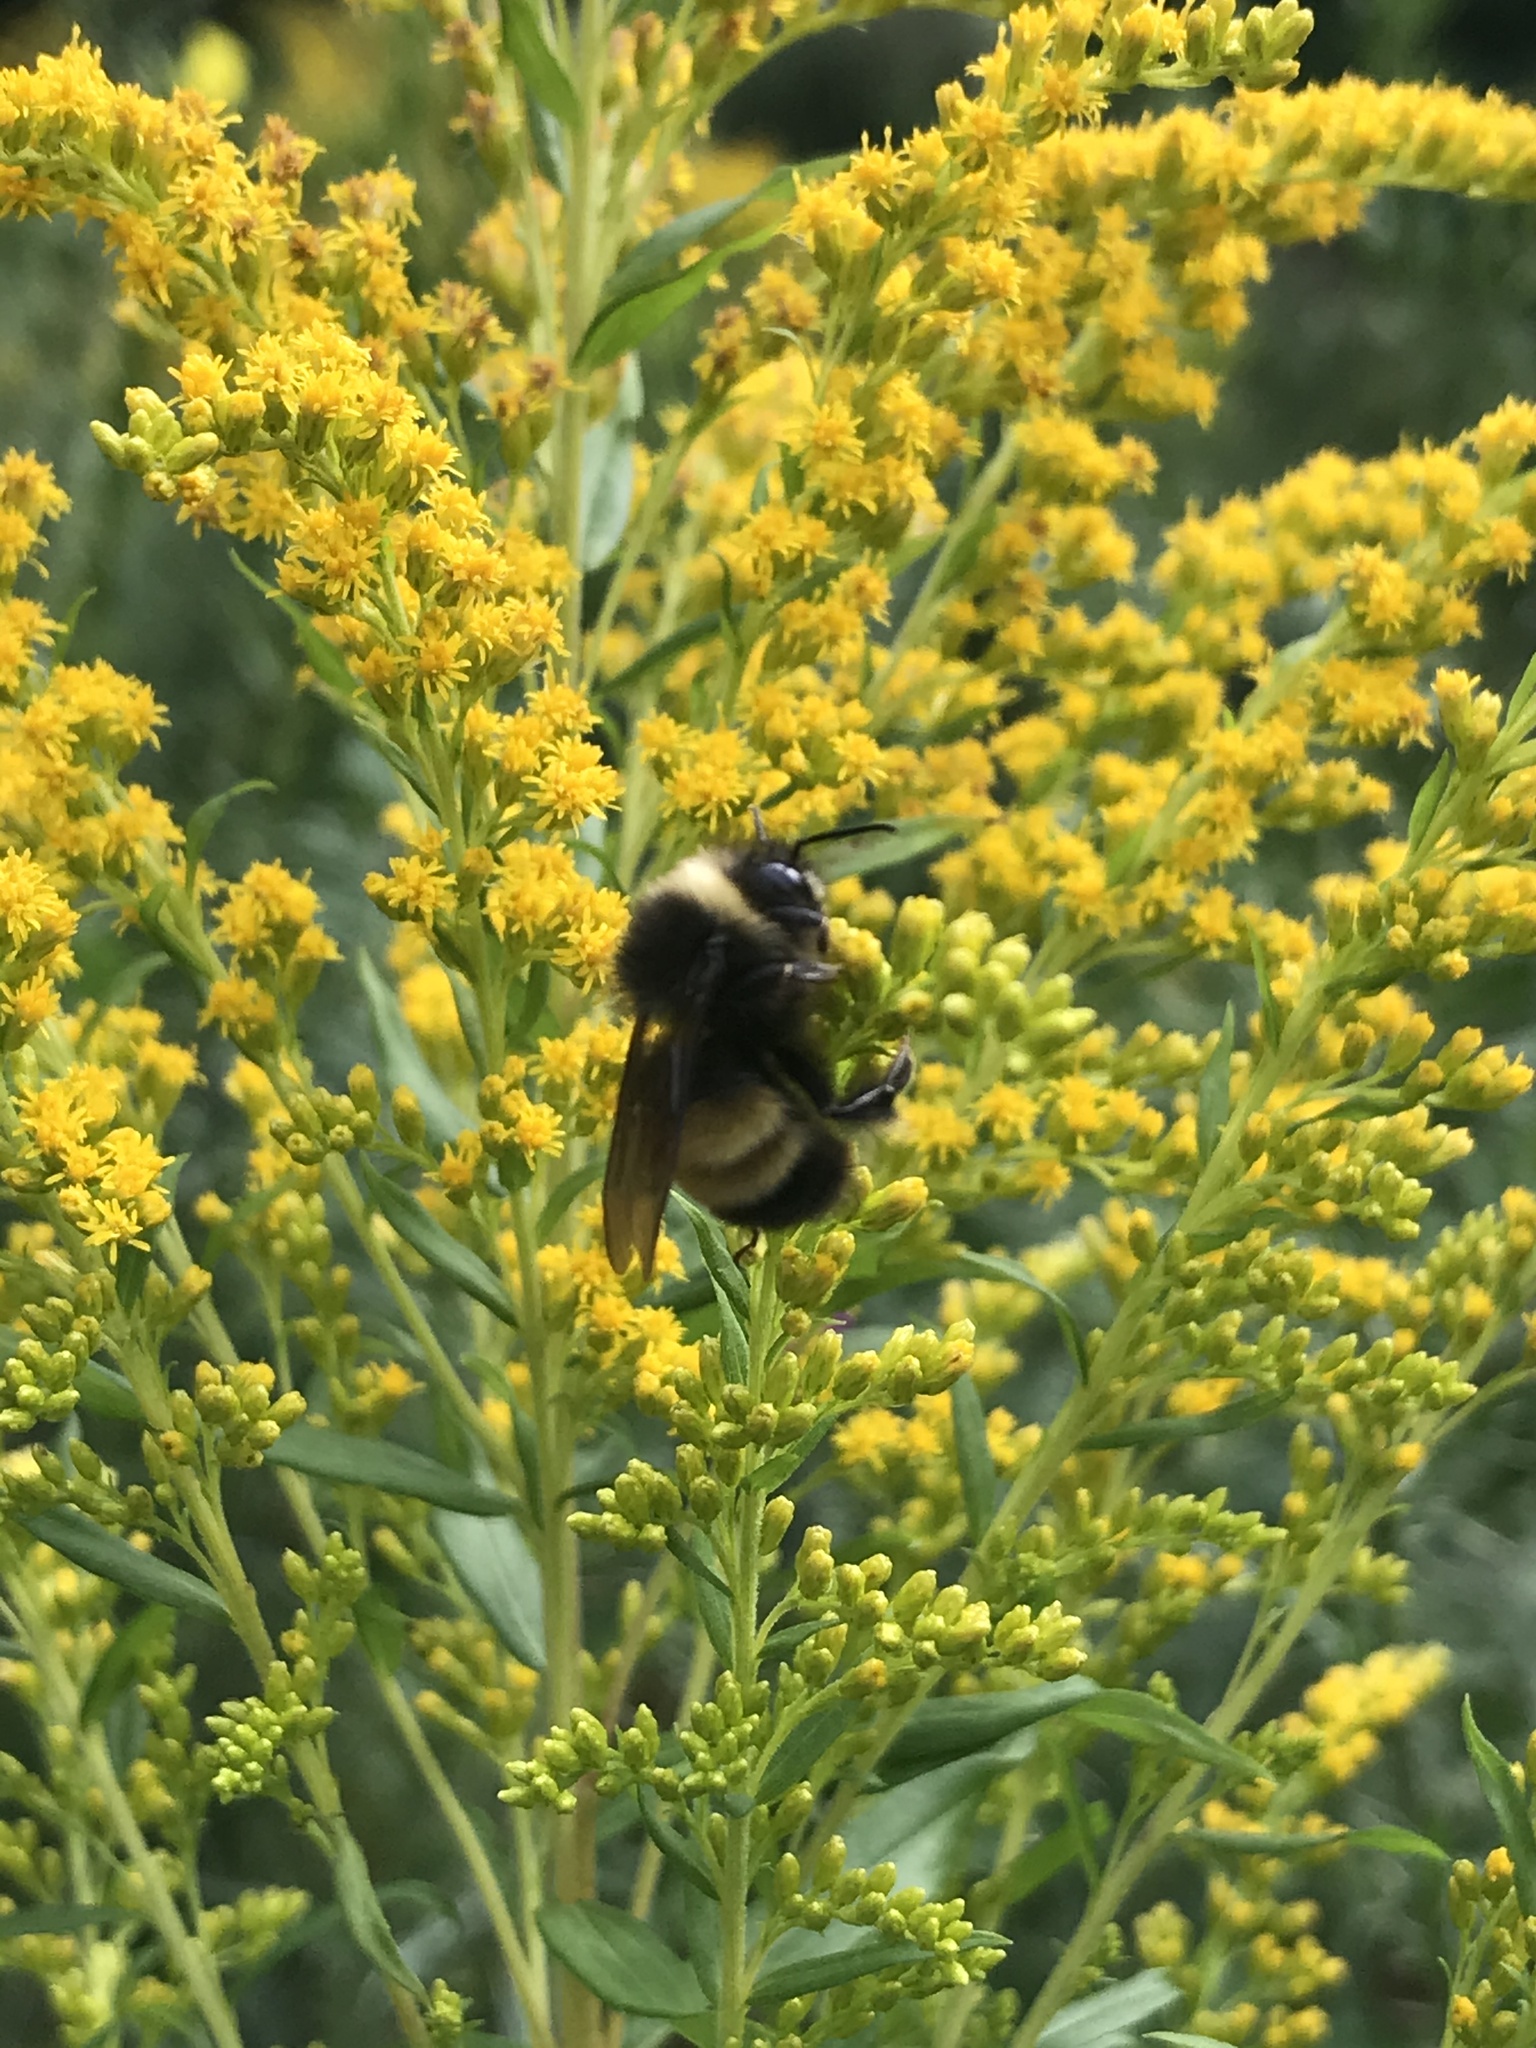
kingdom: Animalia
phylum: Arthropoda
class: Insecta
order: Hymenoptera
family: Apidae
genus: Bombus
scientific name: Bombus terricola
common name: Yellow-banded bumble bee
